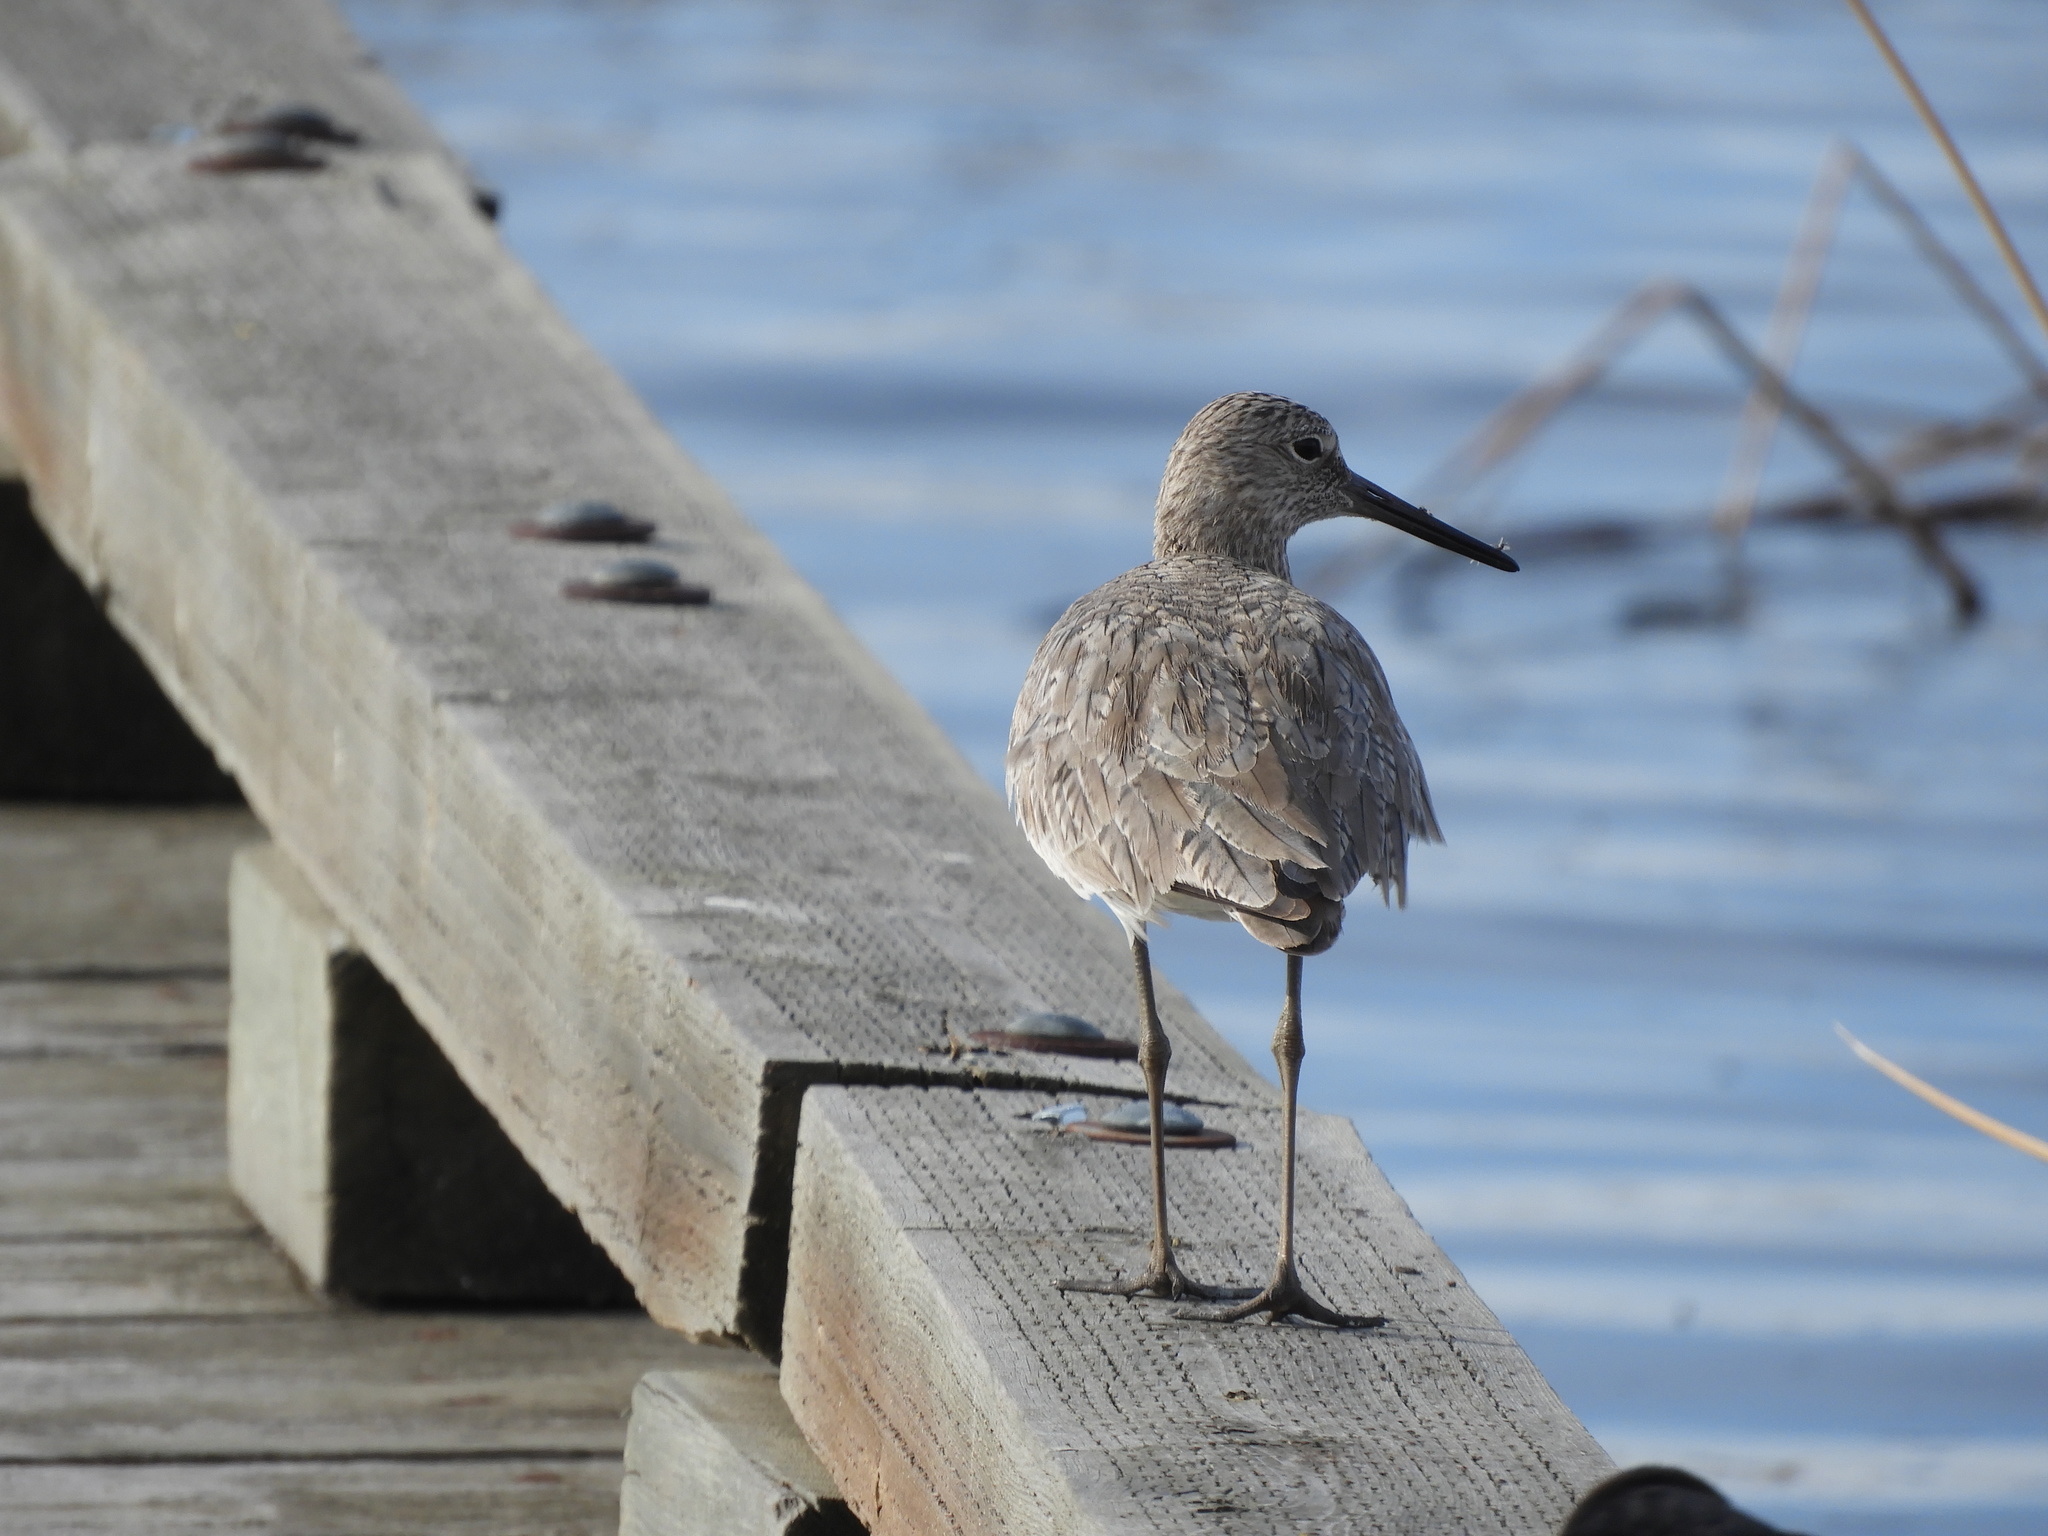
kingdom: Animalia
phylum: Chordata
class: Aves
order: Charadriiformes
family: Scolopacidae
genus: Tringa
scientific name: Tringa semipalmata
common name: Willet
